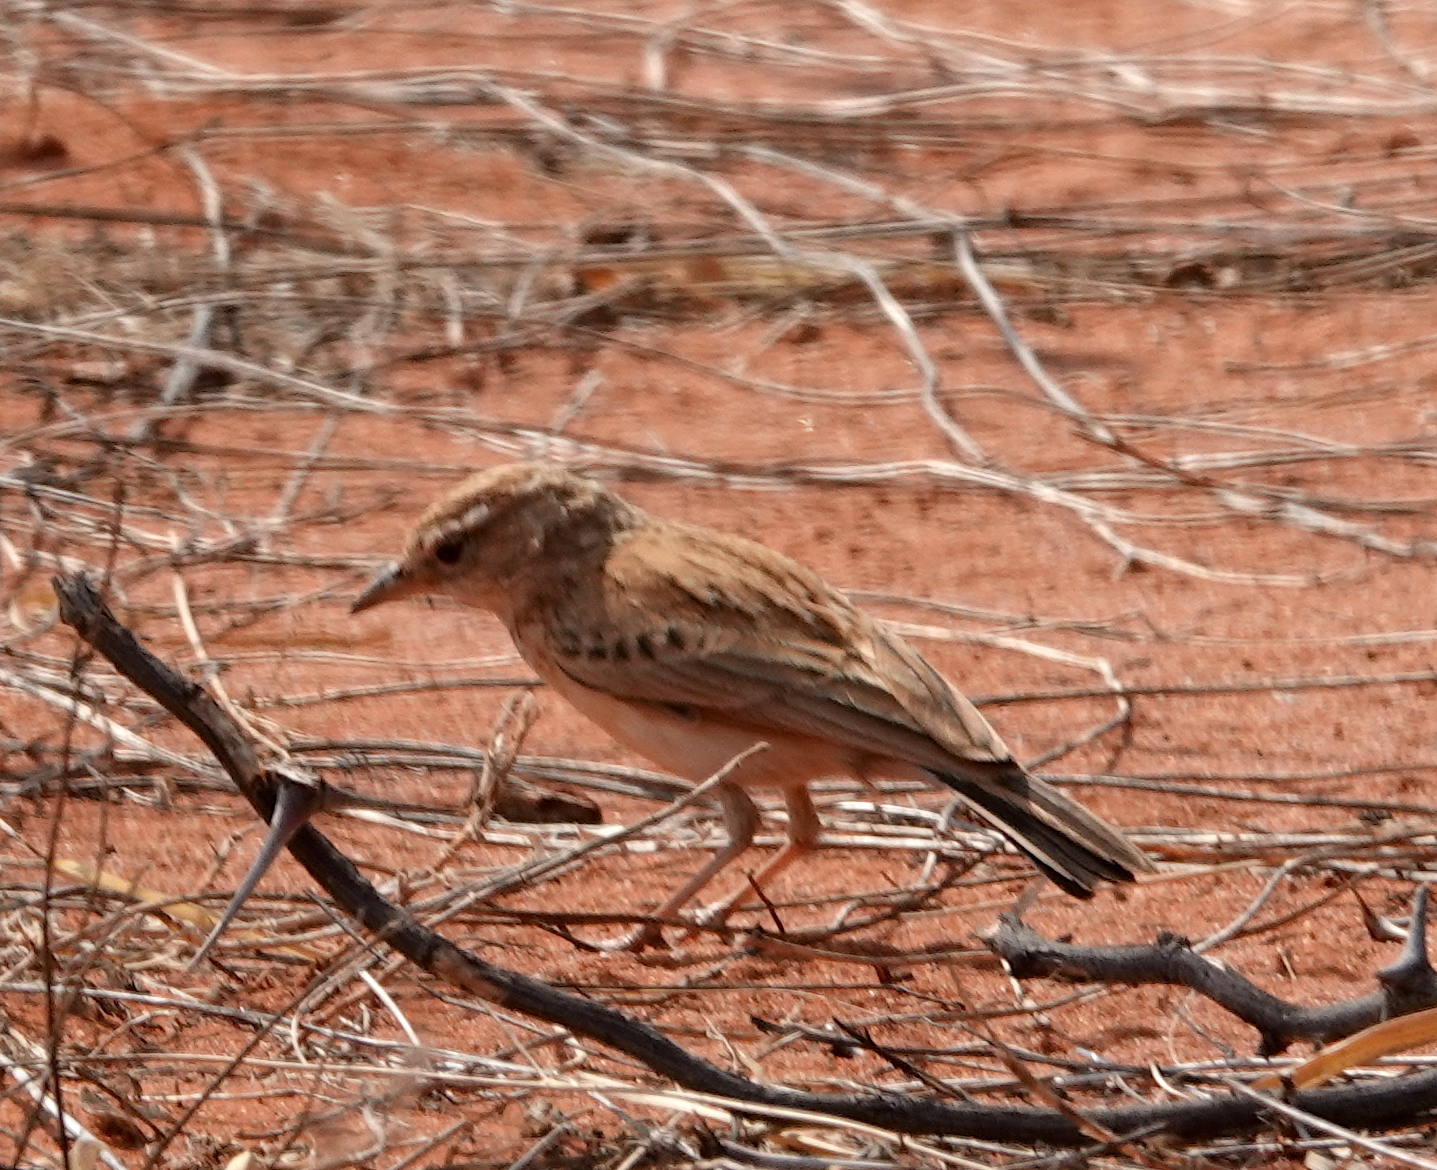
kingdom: Animalia
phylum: Chordata
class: Aves
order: Passeriformes
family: Alaudidae
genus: Calendulauda
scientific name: Calendulauda africanoides
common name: Fawn-colored lark
